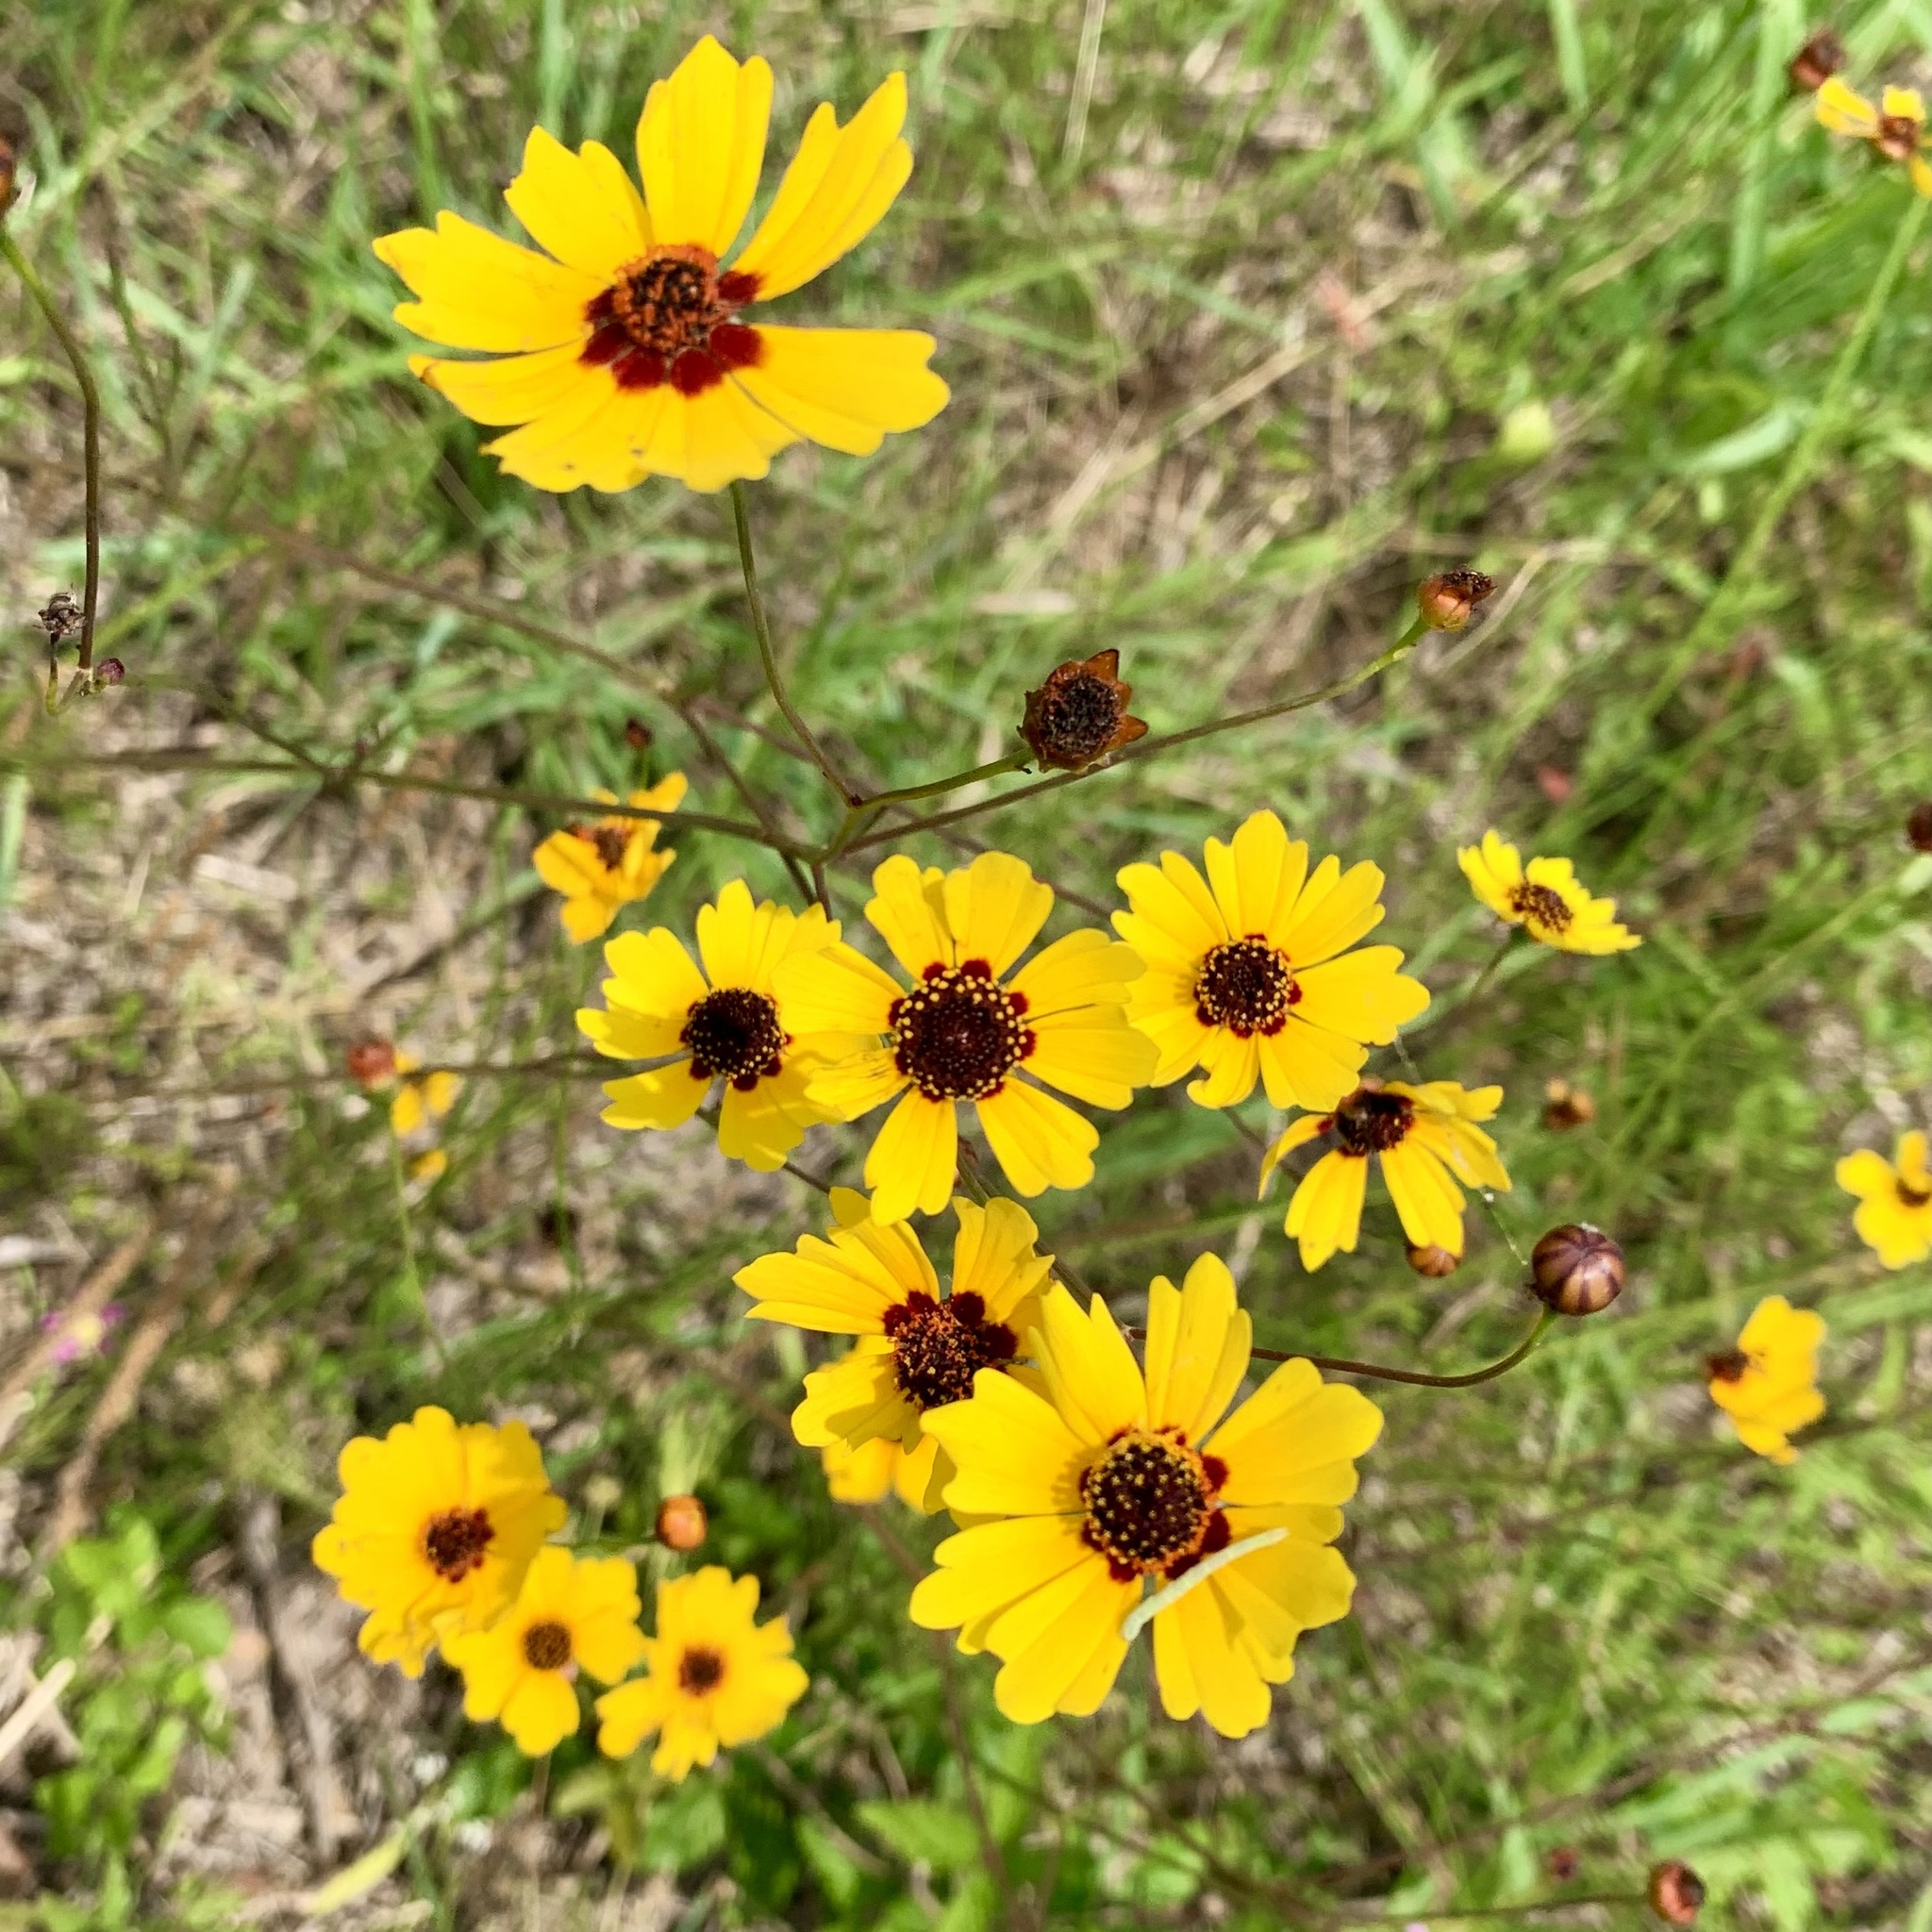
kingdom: Plantae
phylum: Tracheophyta
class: Magnoliopsida
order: Asterales
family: Asteraceae
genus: Coreopsis
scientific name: Coreopsis tinctoria
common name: Garden tickseed
